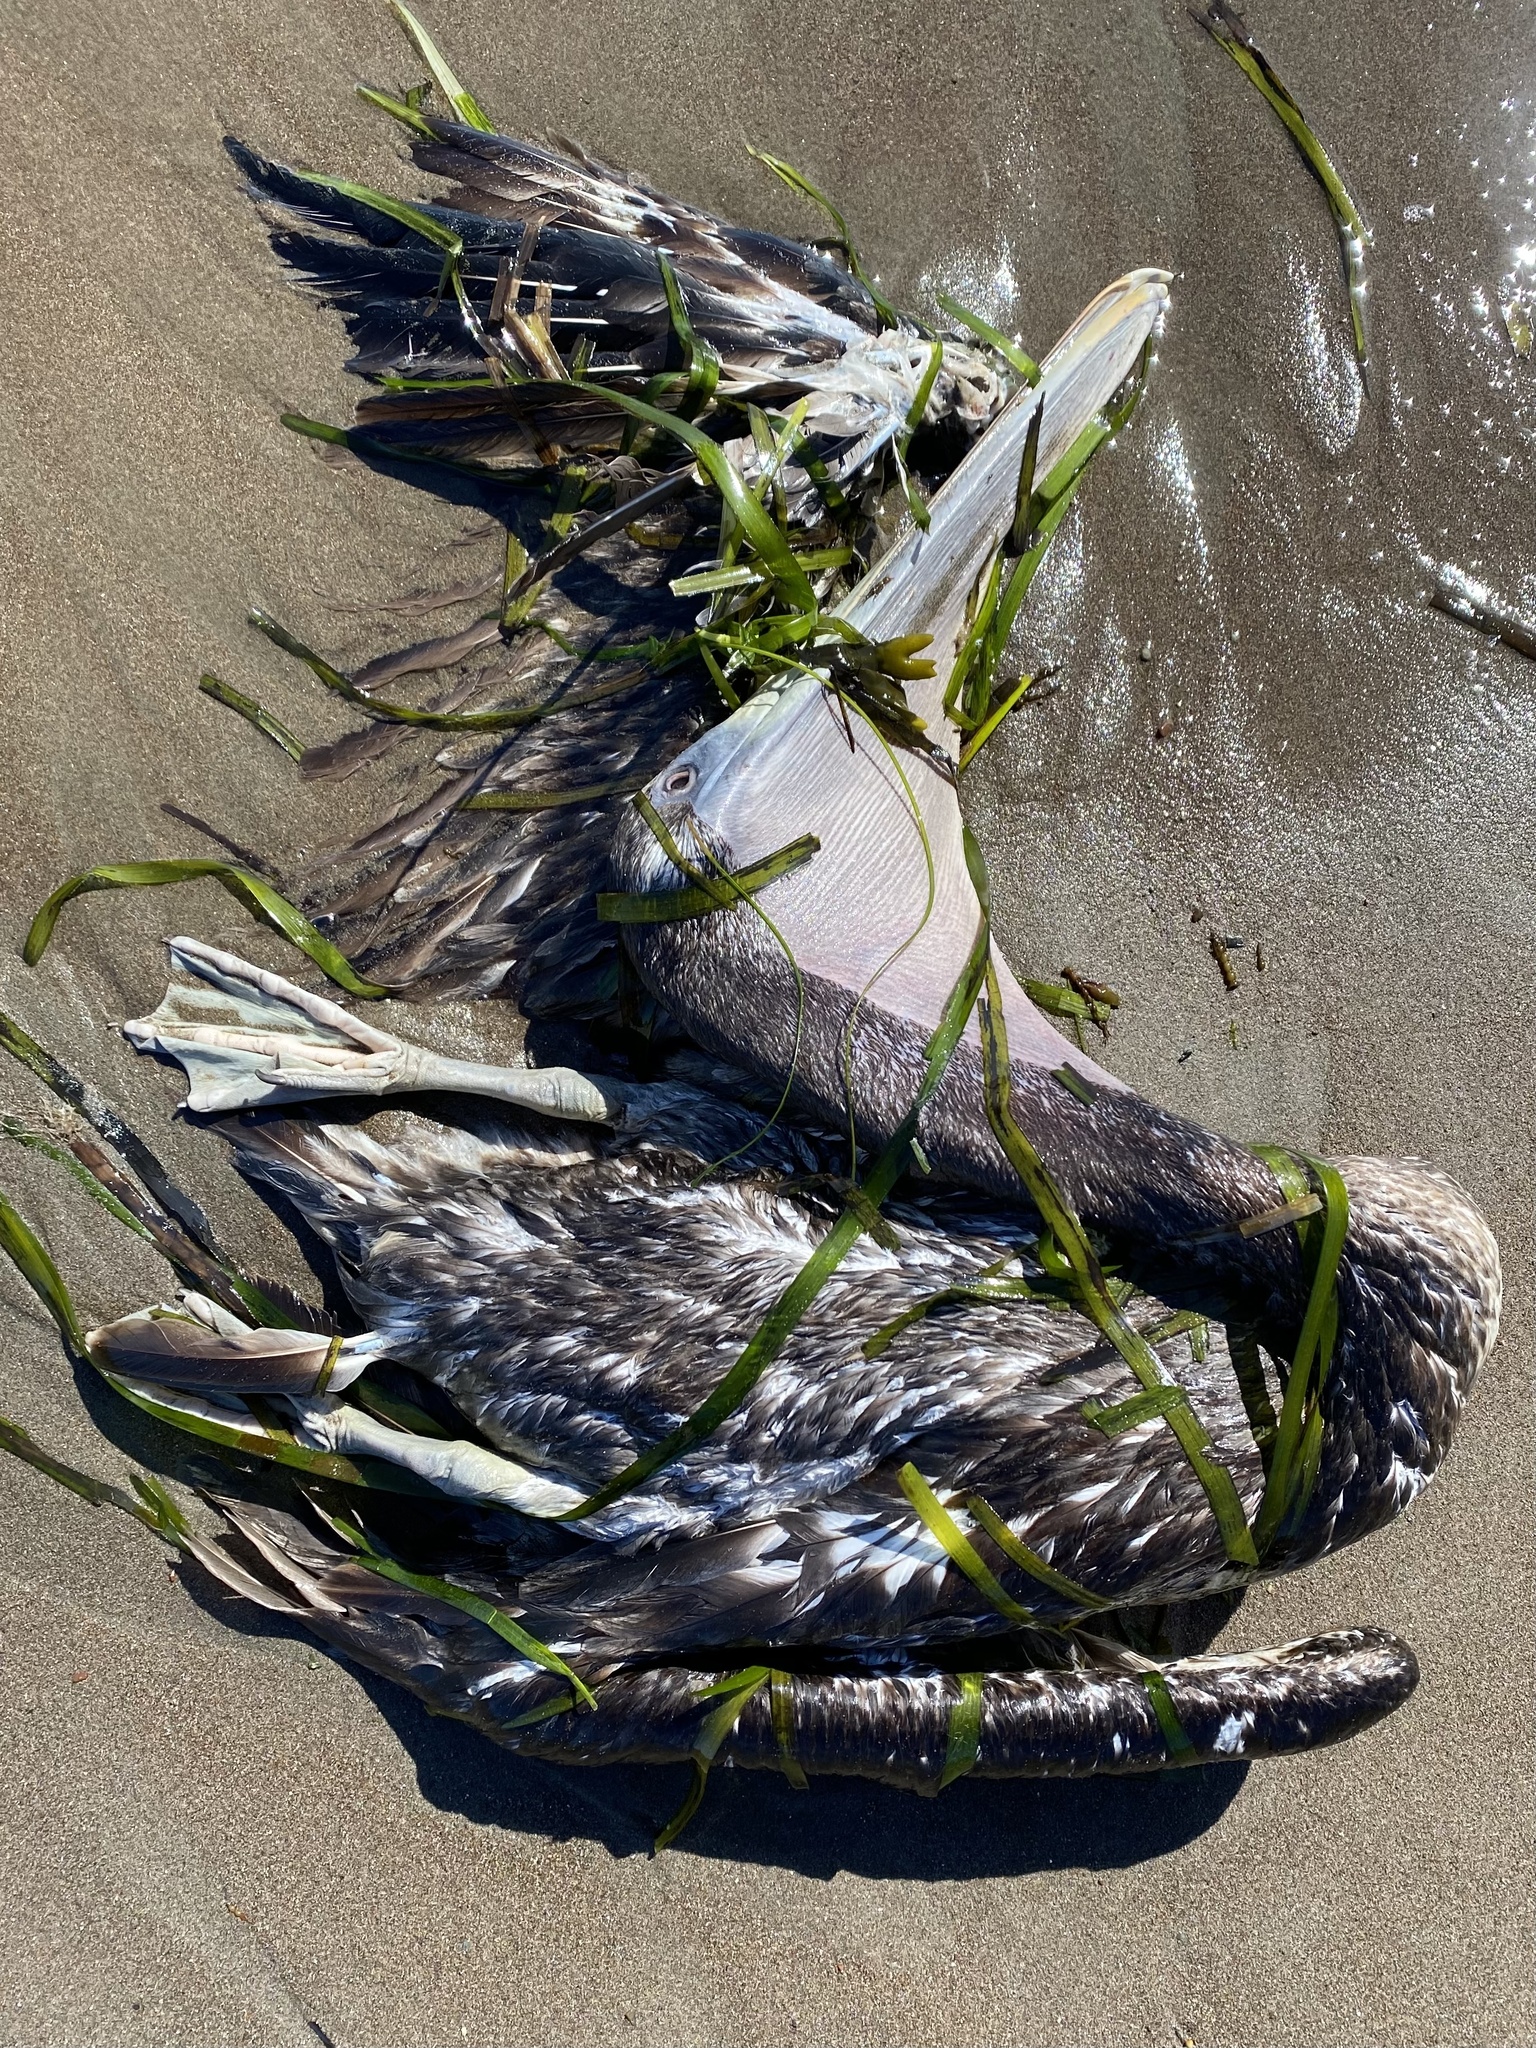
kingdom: Animalia
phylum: Chordata
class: Aves
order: Pelecaniformes
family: Pelecanidae
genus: Pelecanus
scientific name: Pelecanus occidentalis
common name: Brown pelican
